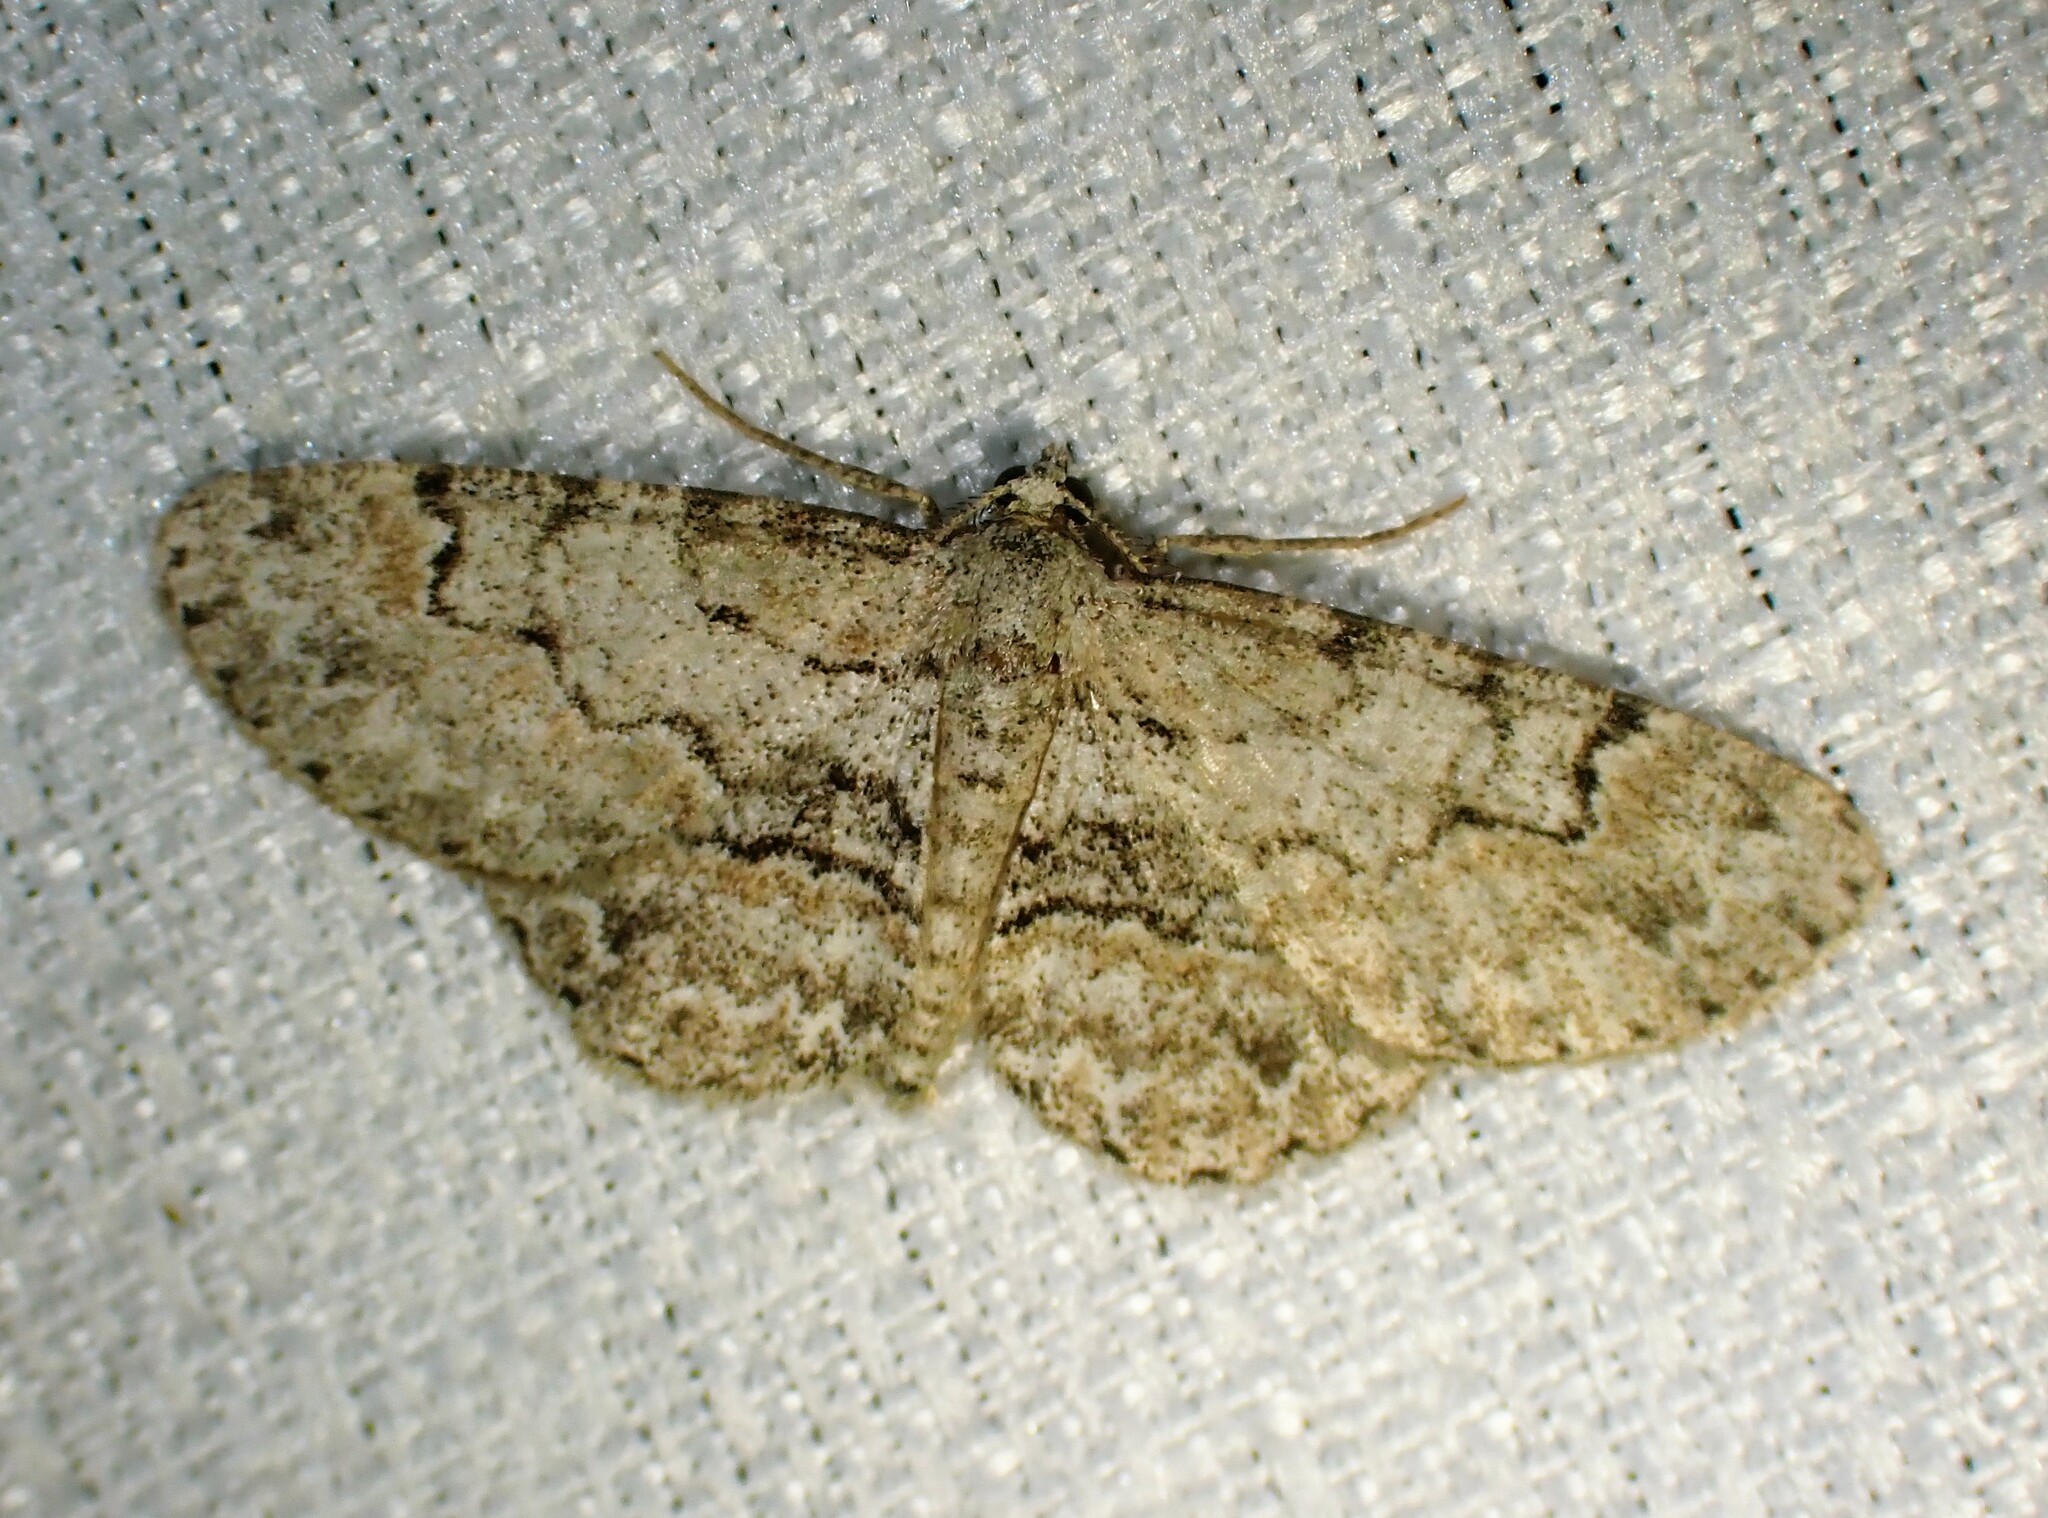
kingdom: Animalia
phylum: Arthropoda
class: Insecta
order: Lepidoptera
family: Geometridae
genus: Iridopsis
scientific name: Iridopsis ephyraria
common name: Pale-winged gray
